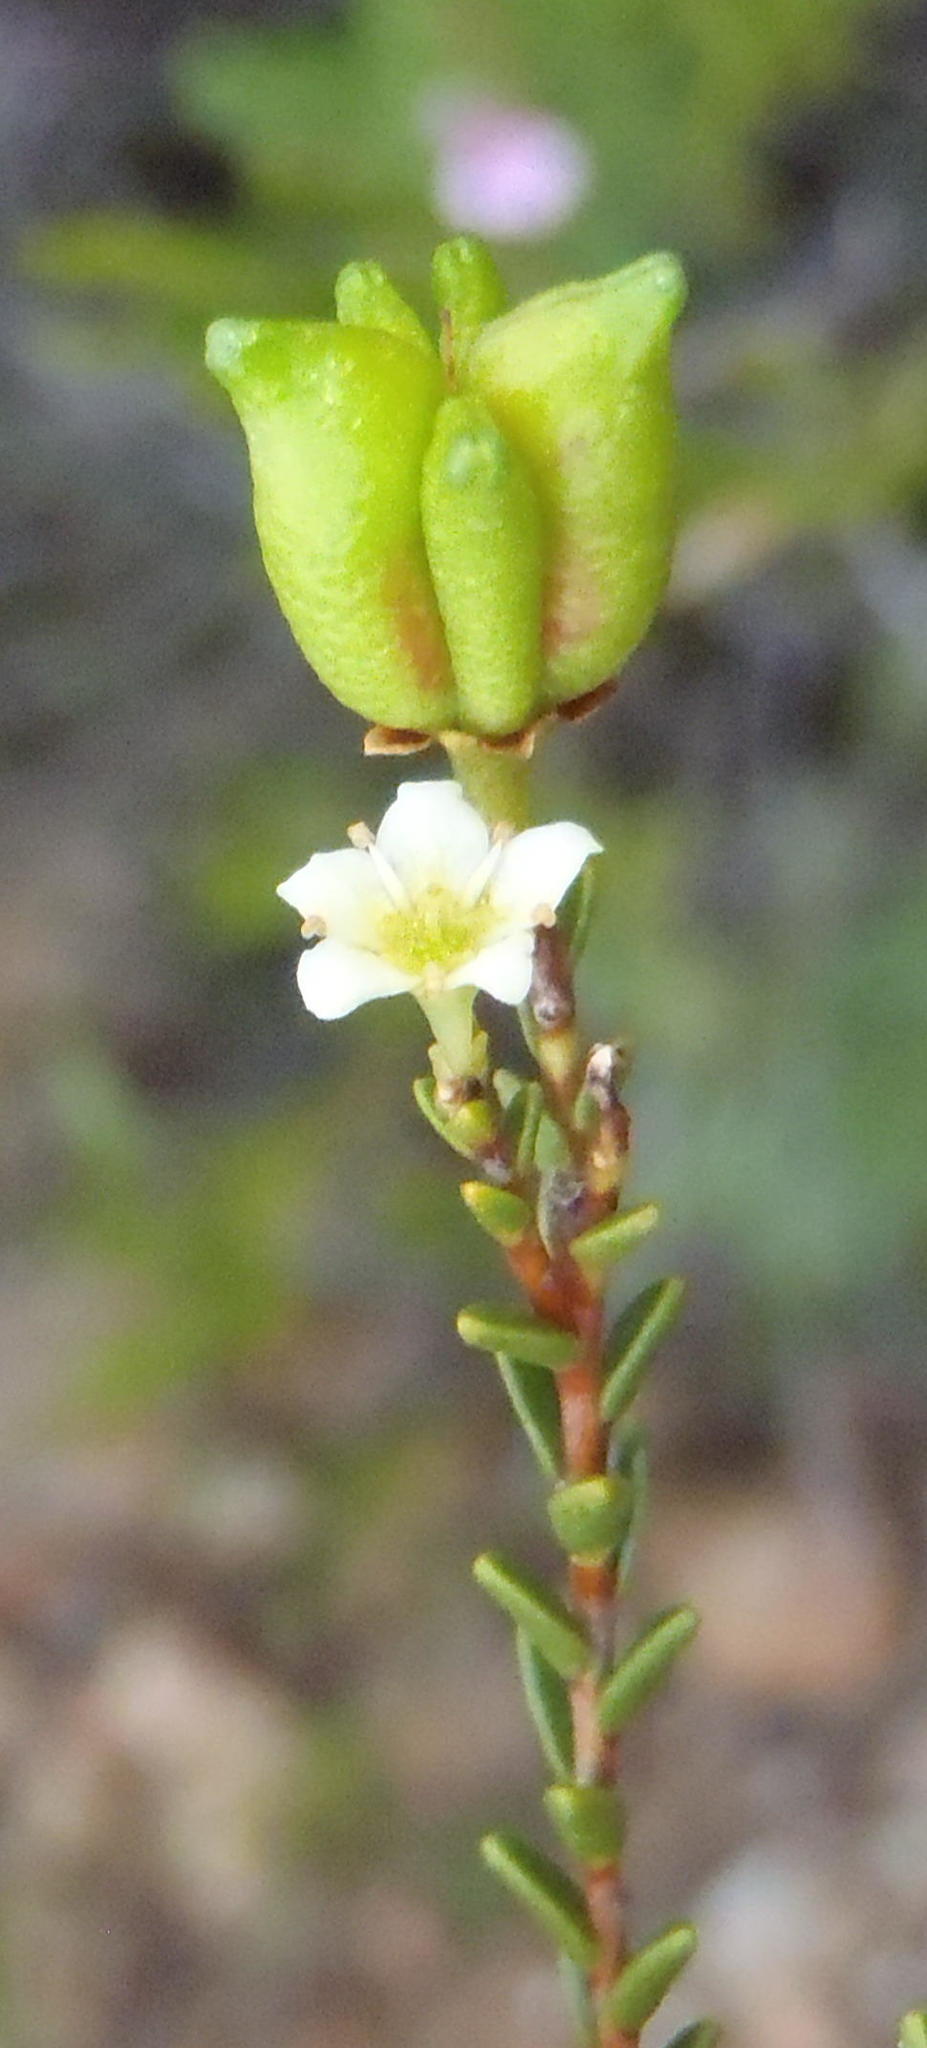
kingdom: Plantae
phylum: Tracheophyta
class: Magnoliopsida
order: Sapindales
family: Rutaceae
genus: Diosma
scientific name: Diosma prama
